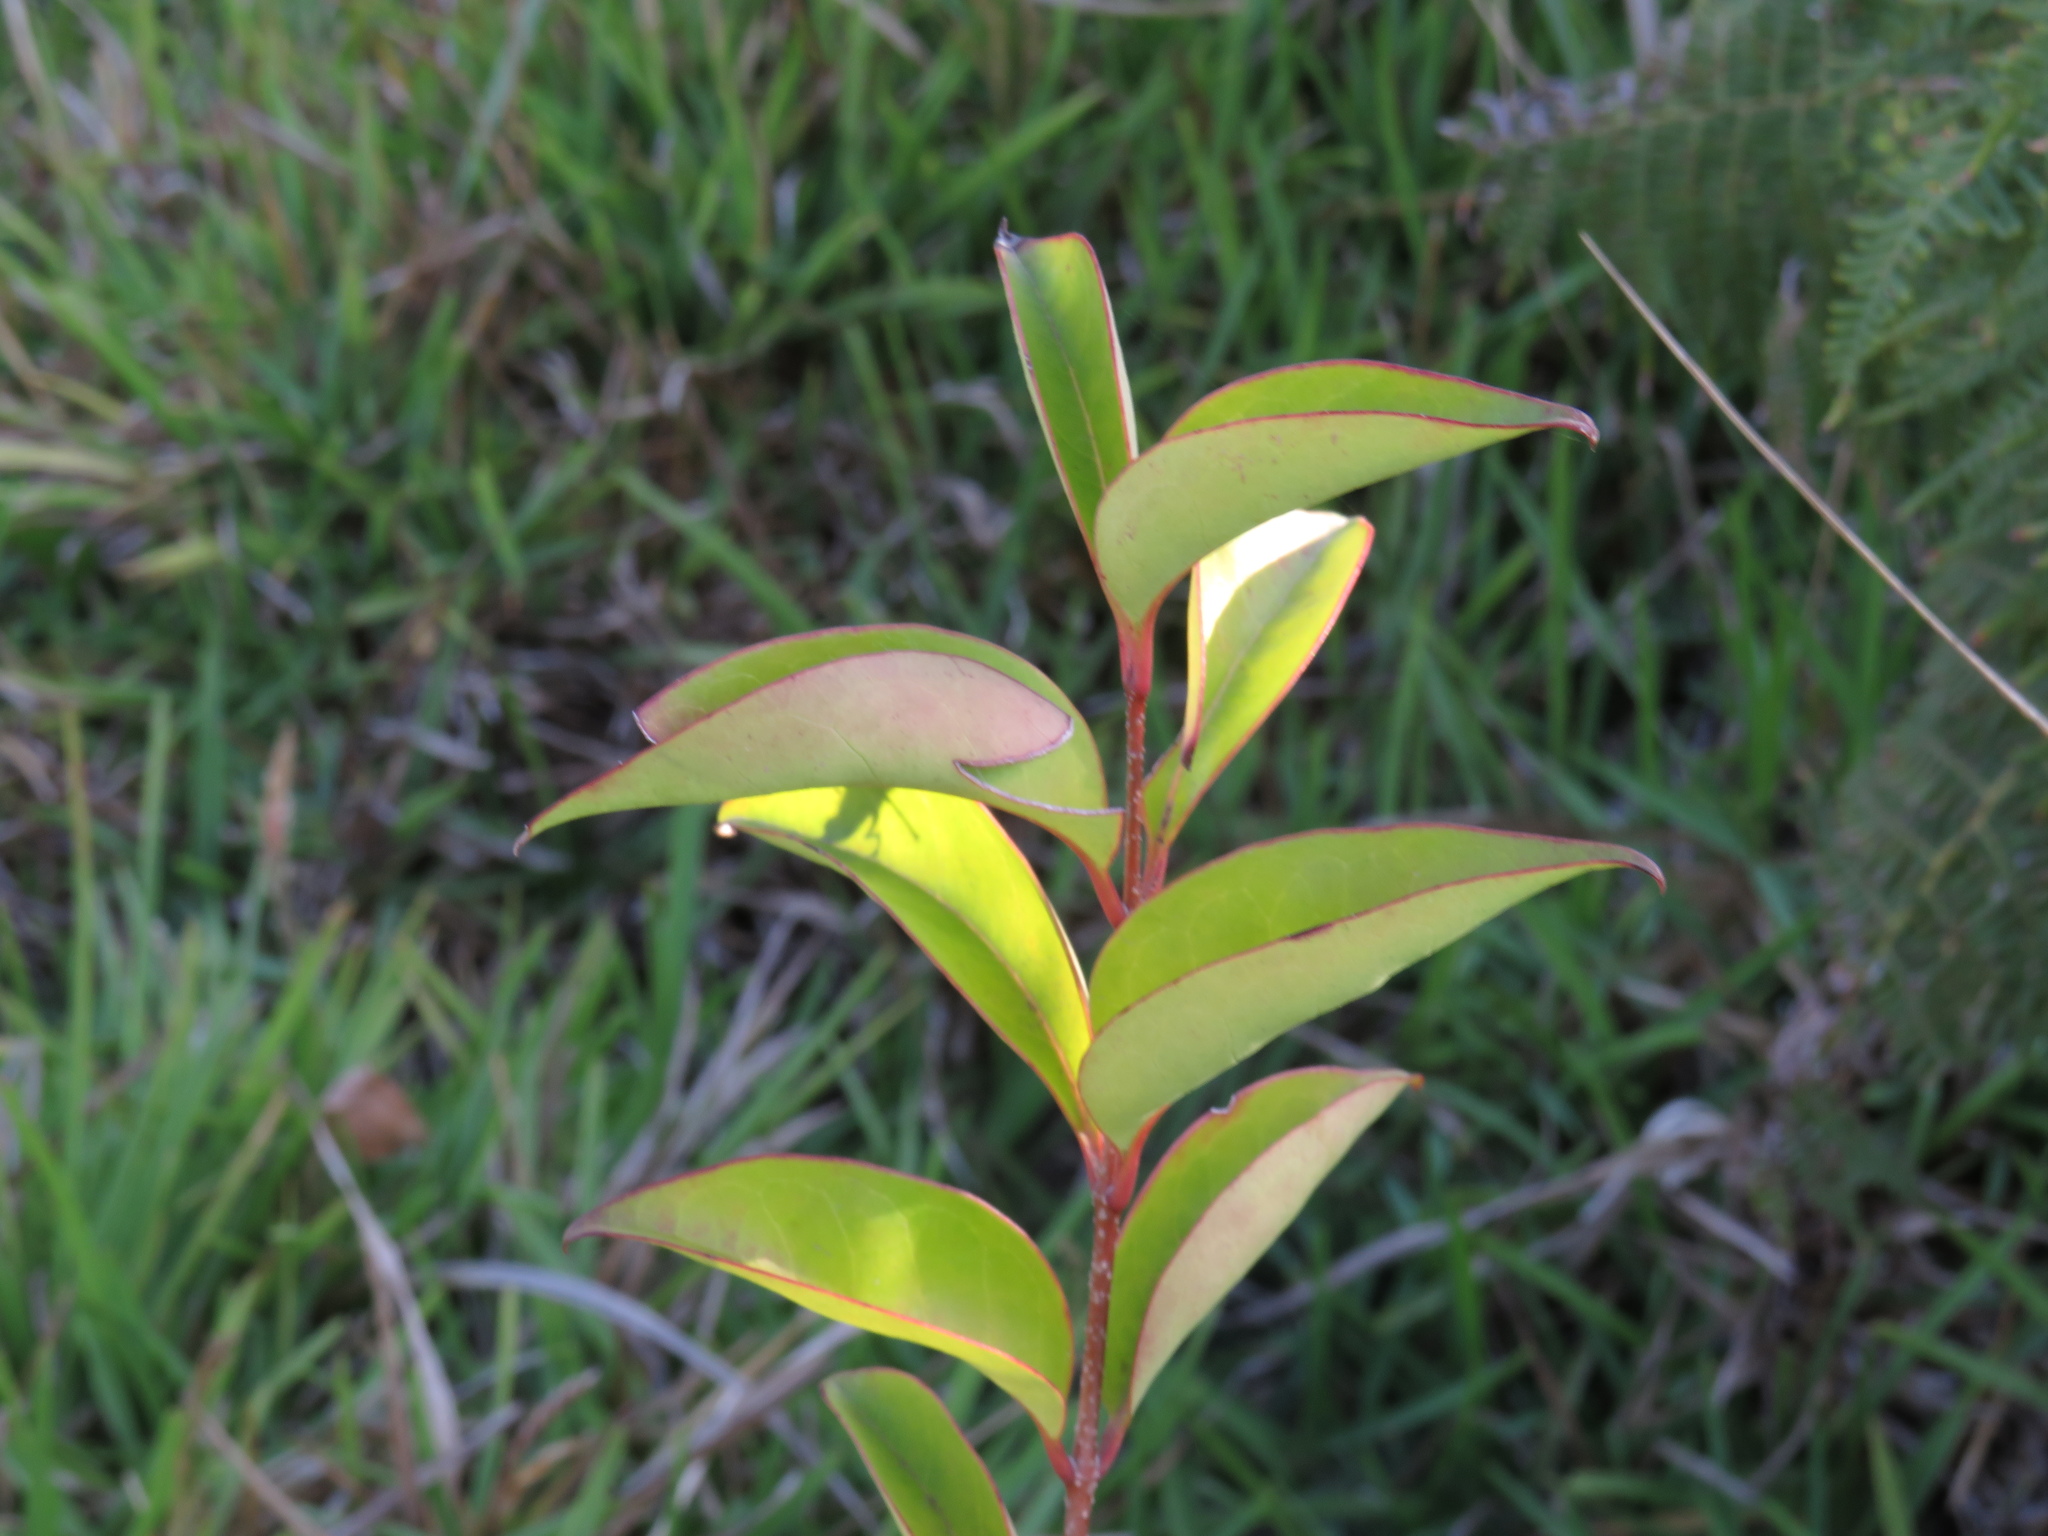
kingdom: Plantae
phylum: Tracheophyta
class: Magnoliopsida
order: Lamiales
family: Oleaceae
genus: Ligustrum
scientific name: Ligustrum lucidum
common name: Glossy privet
